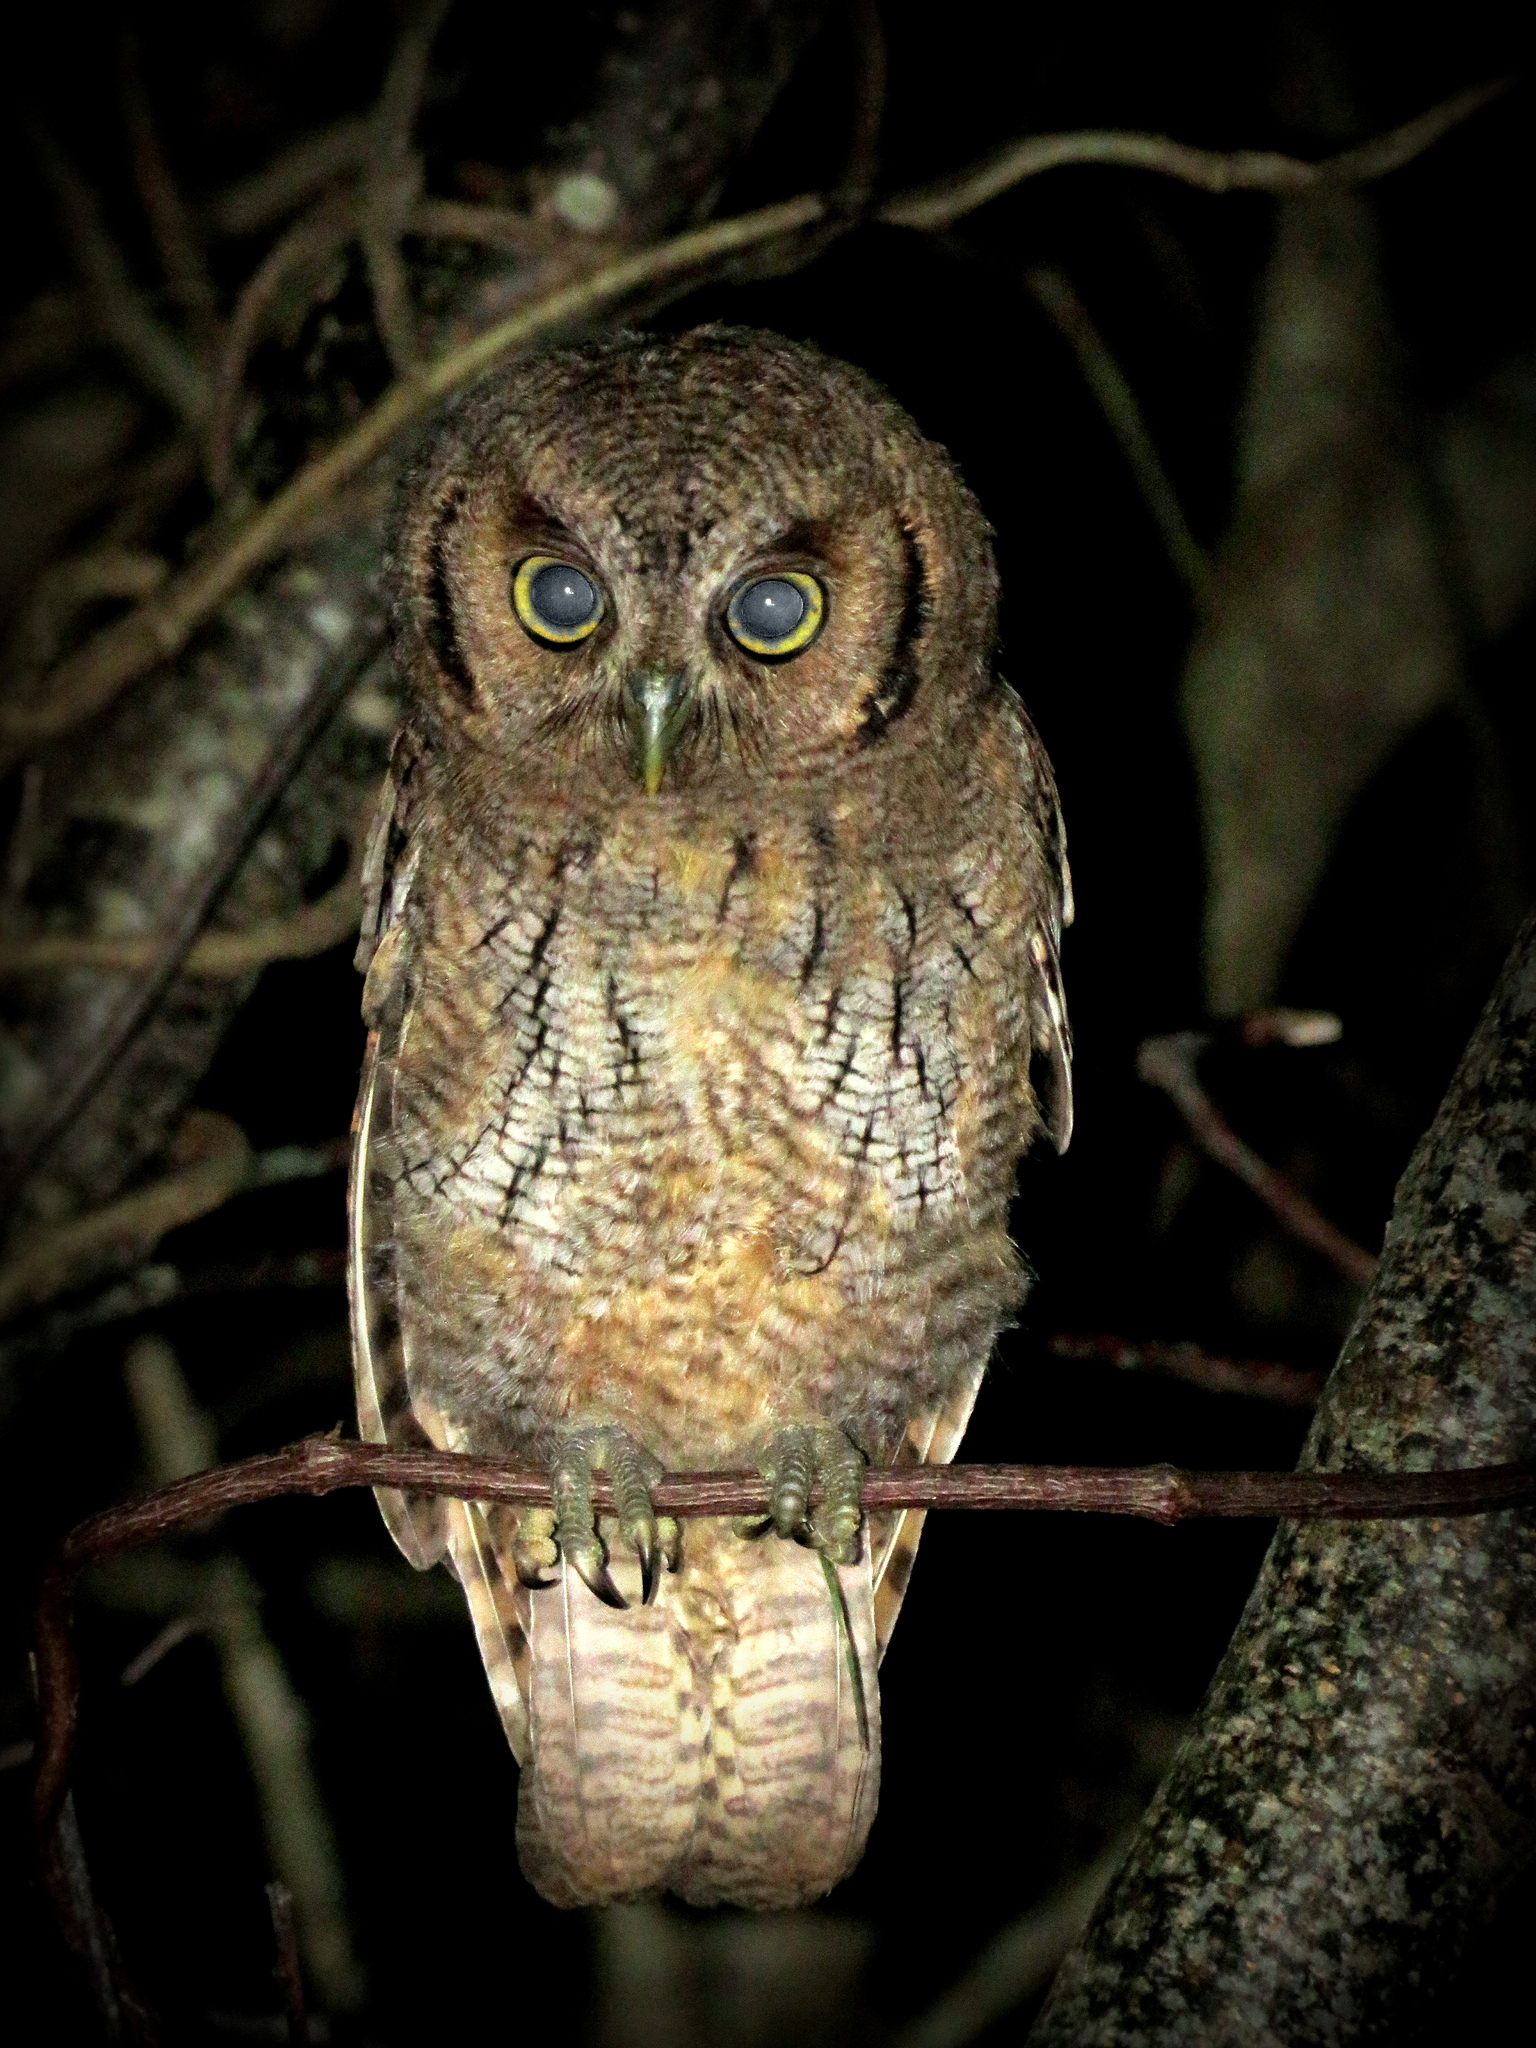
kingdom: Animalia
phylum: Chordata
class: Aves
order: Strigiformes
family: Strigidae
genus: Megascops
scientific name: Megascops choliba
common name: Tropical screech-owl
